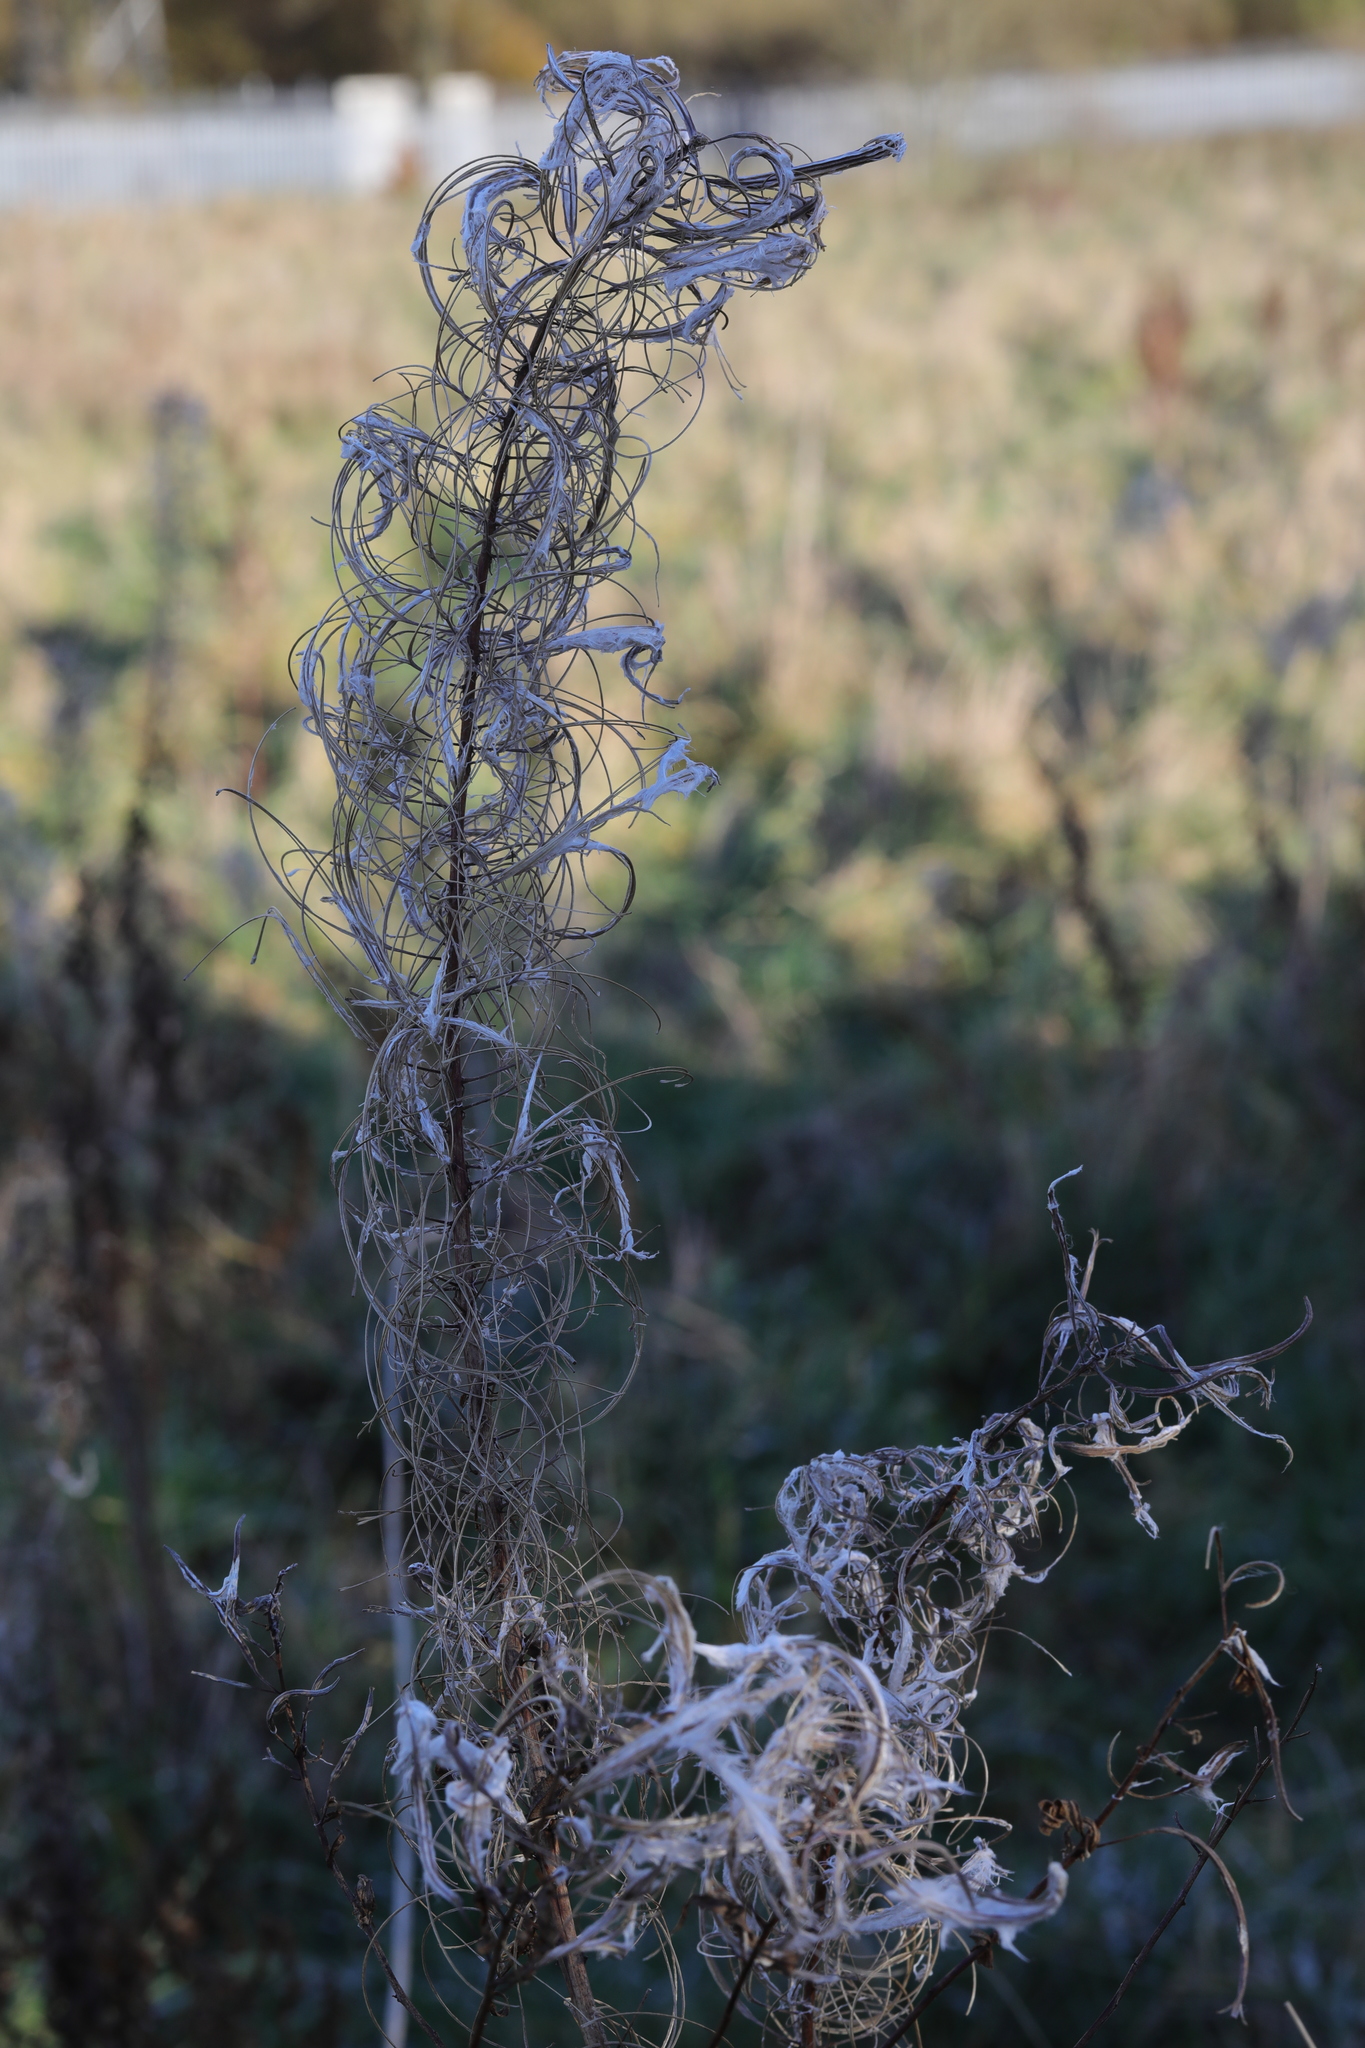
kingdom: Plantae
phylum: Tracheophyta
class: Magnoliopsida
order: Myrtales
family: Onagraceae
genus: Chamaenerion
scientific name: Chamaenerion angustifolium
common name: Fireweed
